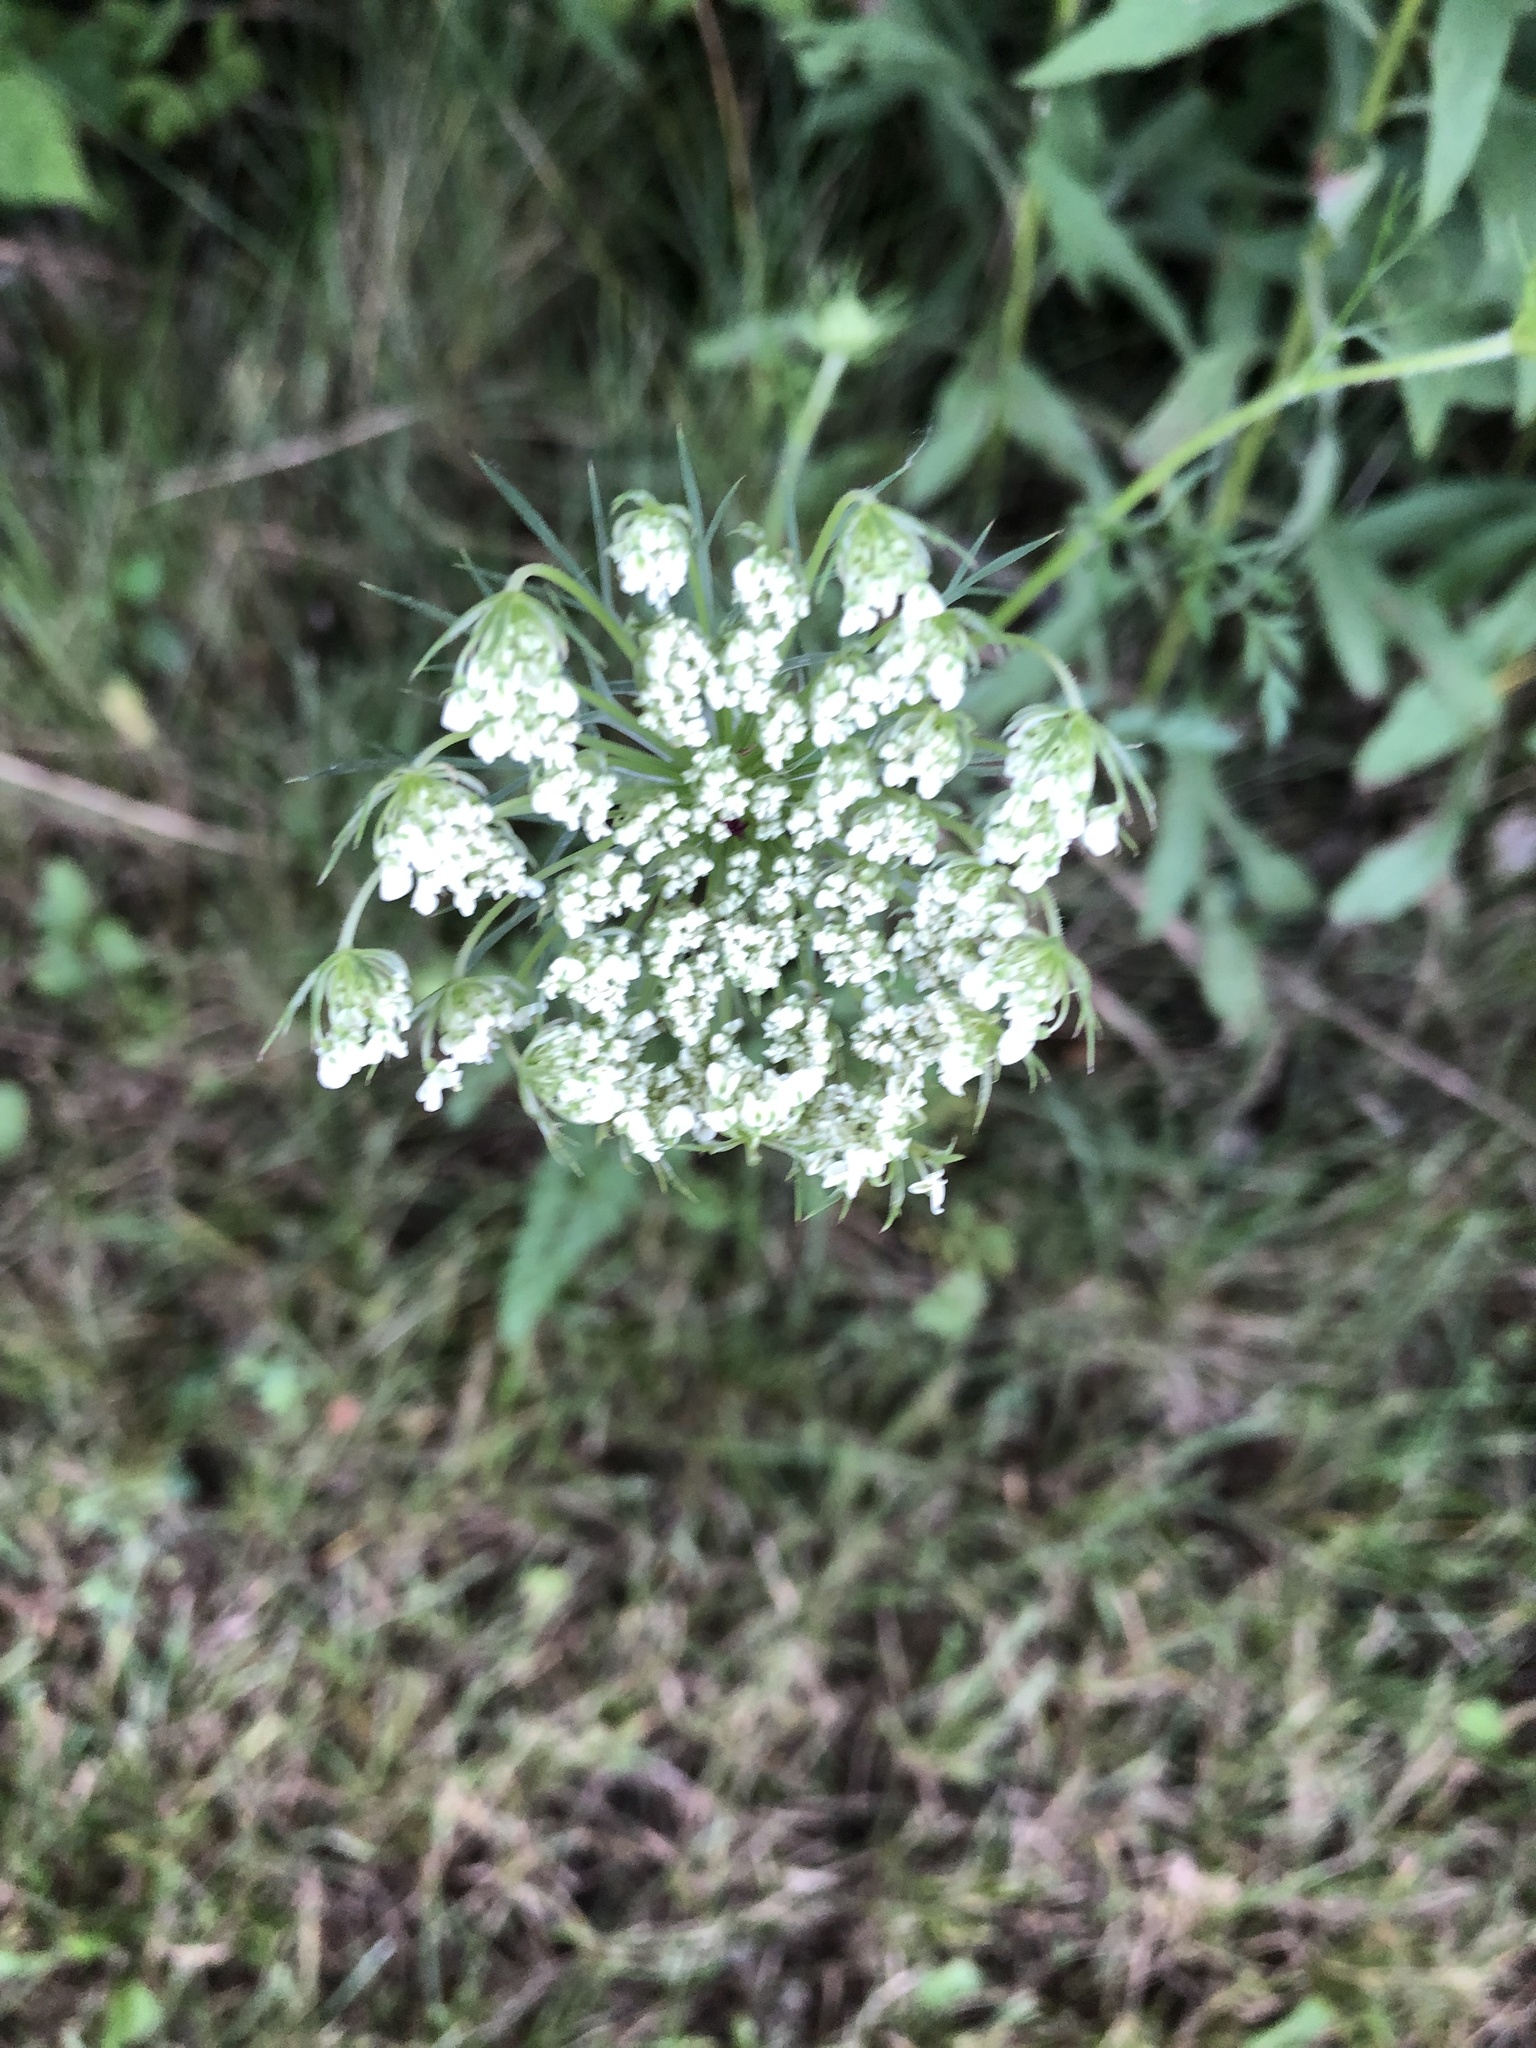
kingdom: Plantae
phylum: Tracheophyta
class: Magnoliopsida
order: Apiales
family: Apiaceae
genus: Daucus
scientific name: Daucus carota
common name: Wild carrot
